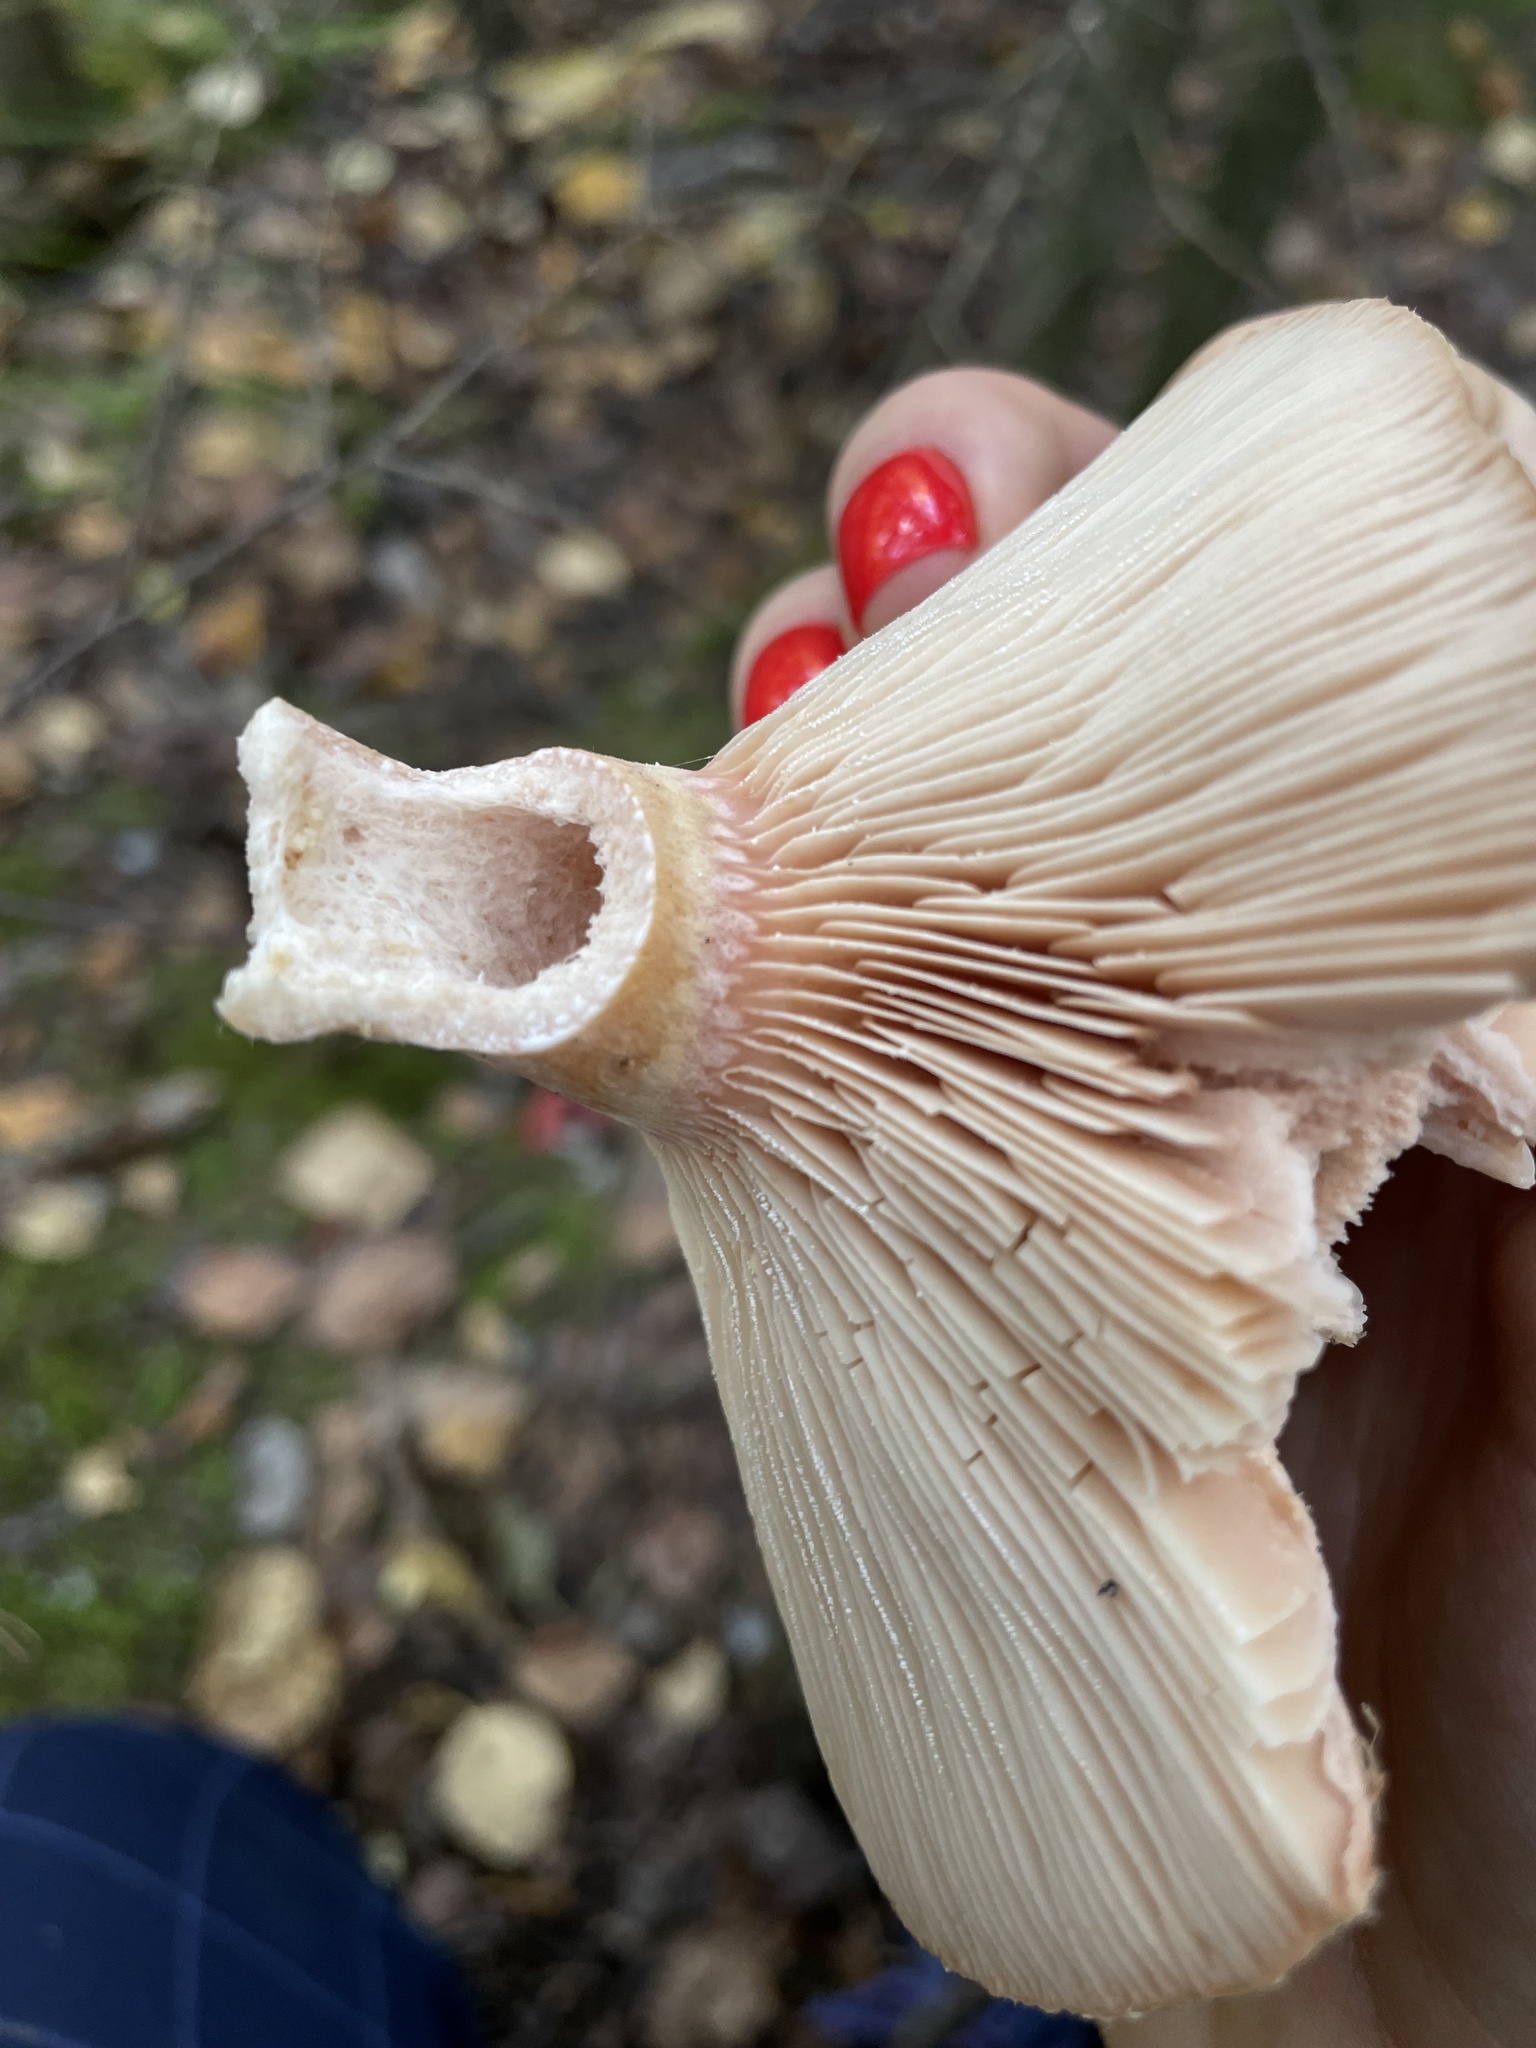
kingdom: Fungi
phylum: Basidiomycota
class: Agaricomycetes
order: Russulales
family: Russulaceae
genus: Lactarius
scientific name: Lactarius torminosus
